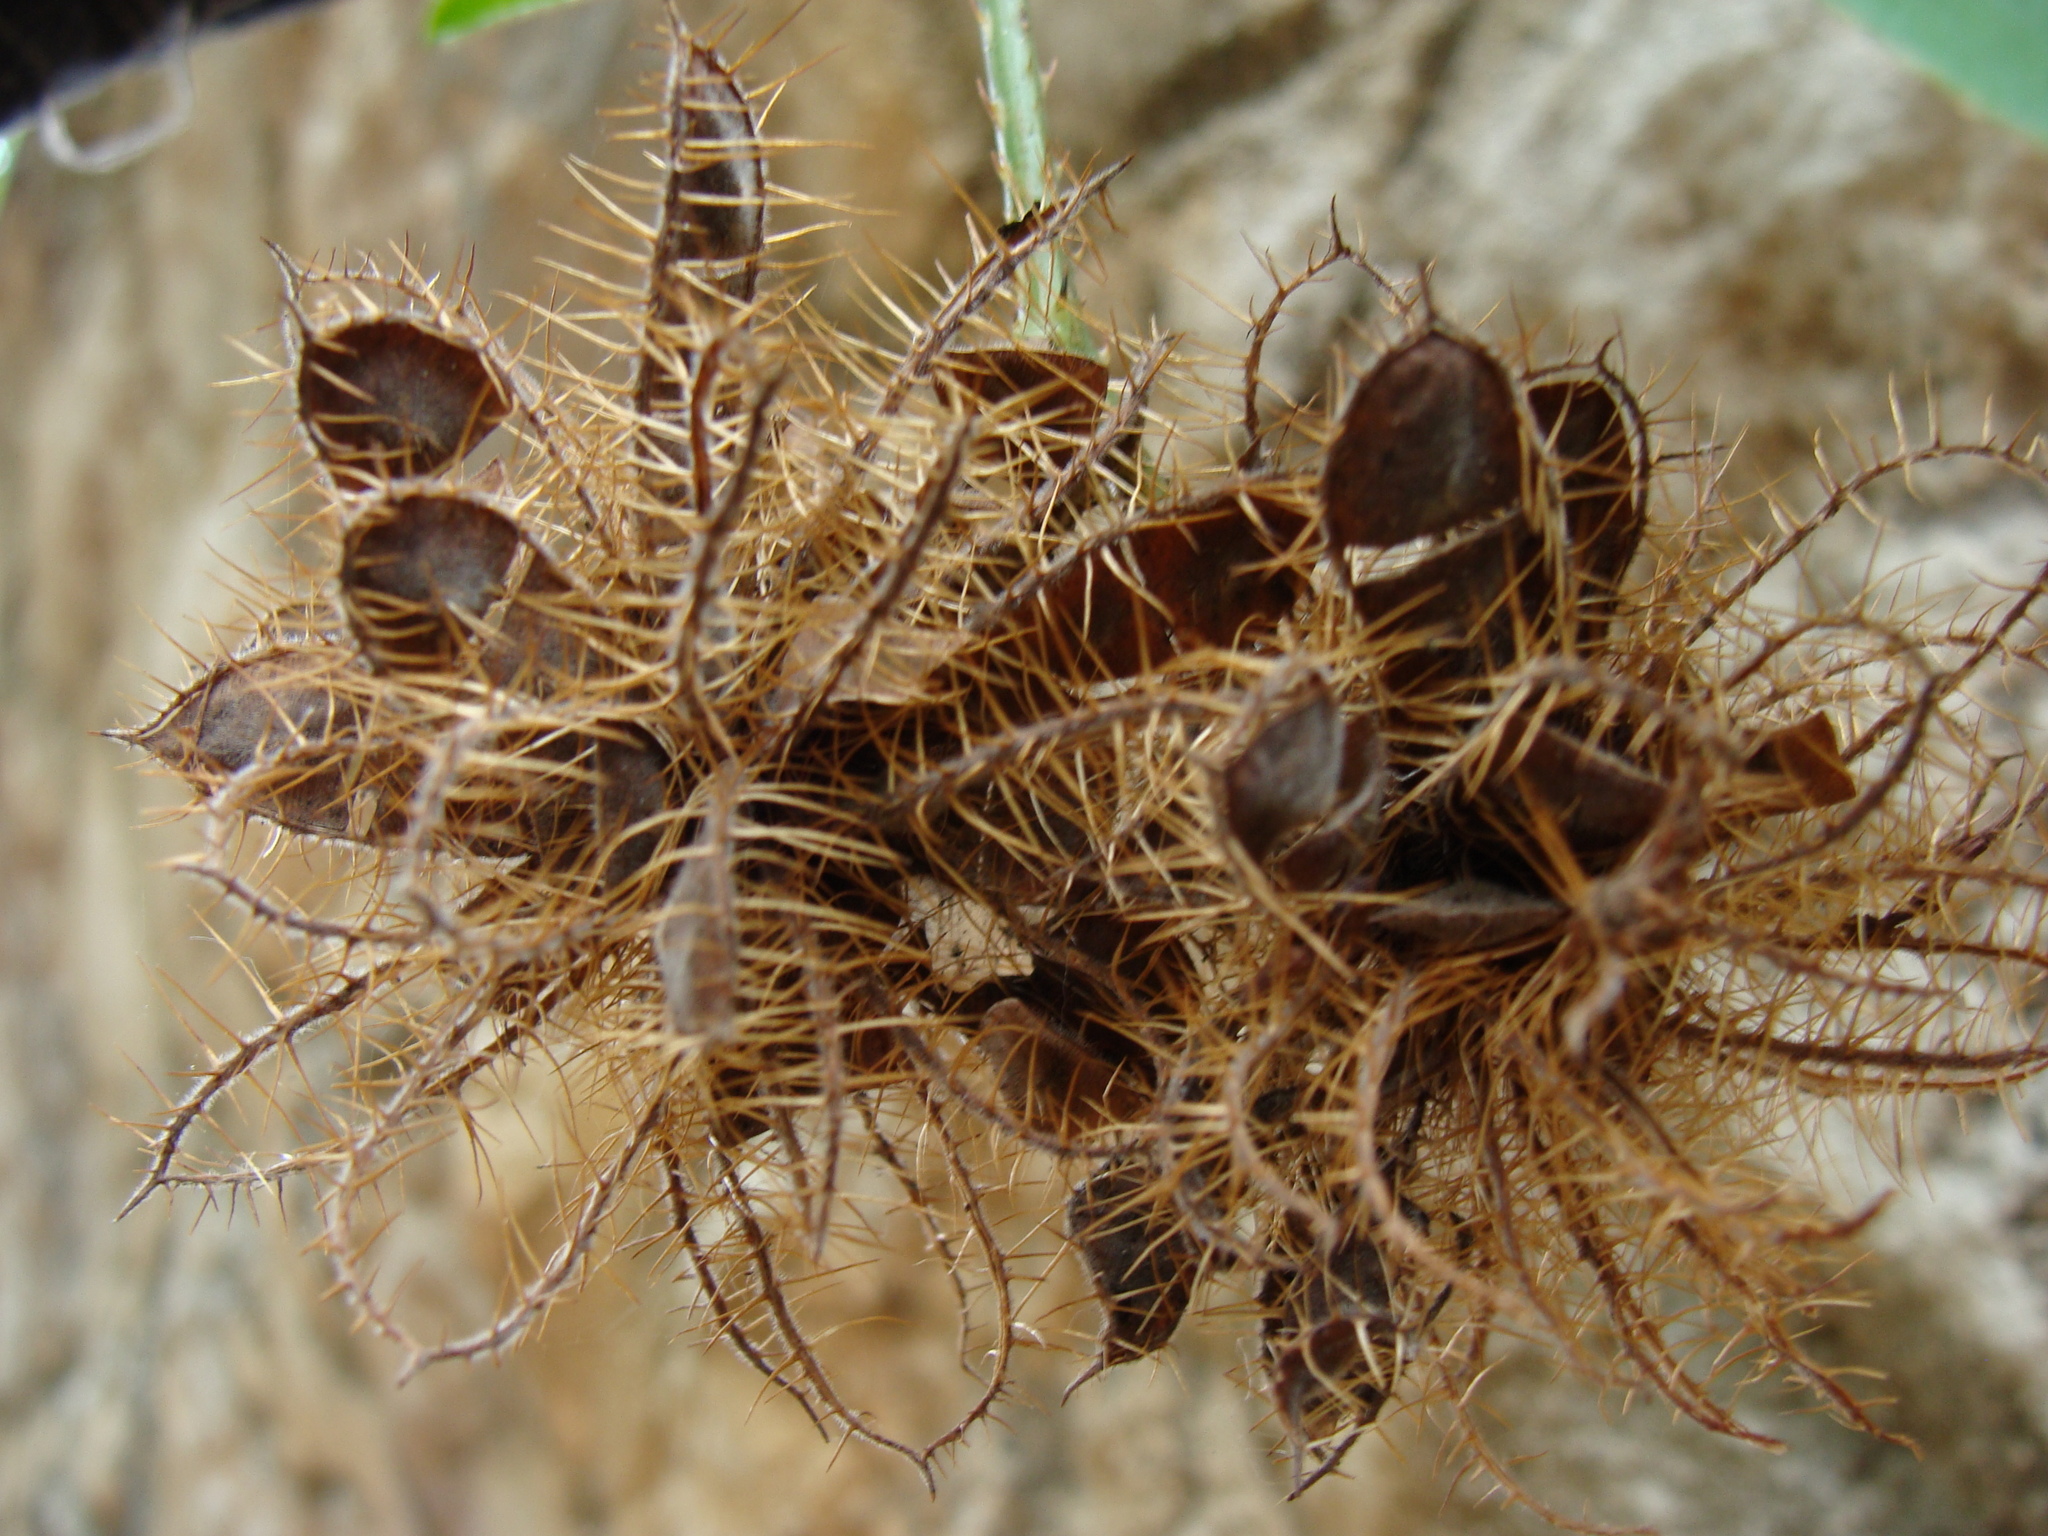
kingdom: Plantae
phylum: Tracheophyta
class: Magnoliopsida
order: Fabales
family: Fabaceae
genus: Mimosa
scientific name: Mimosa albida
